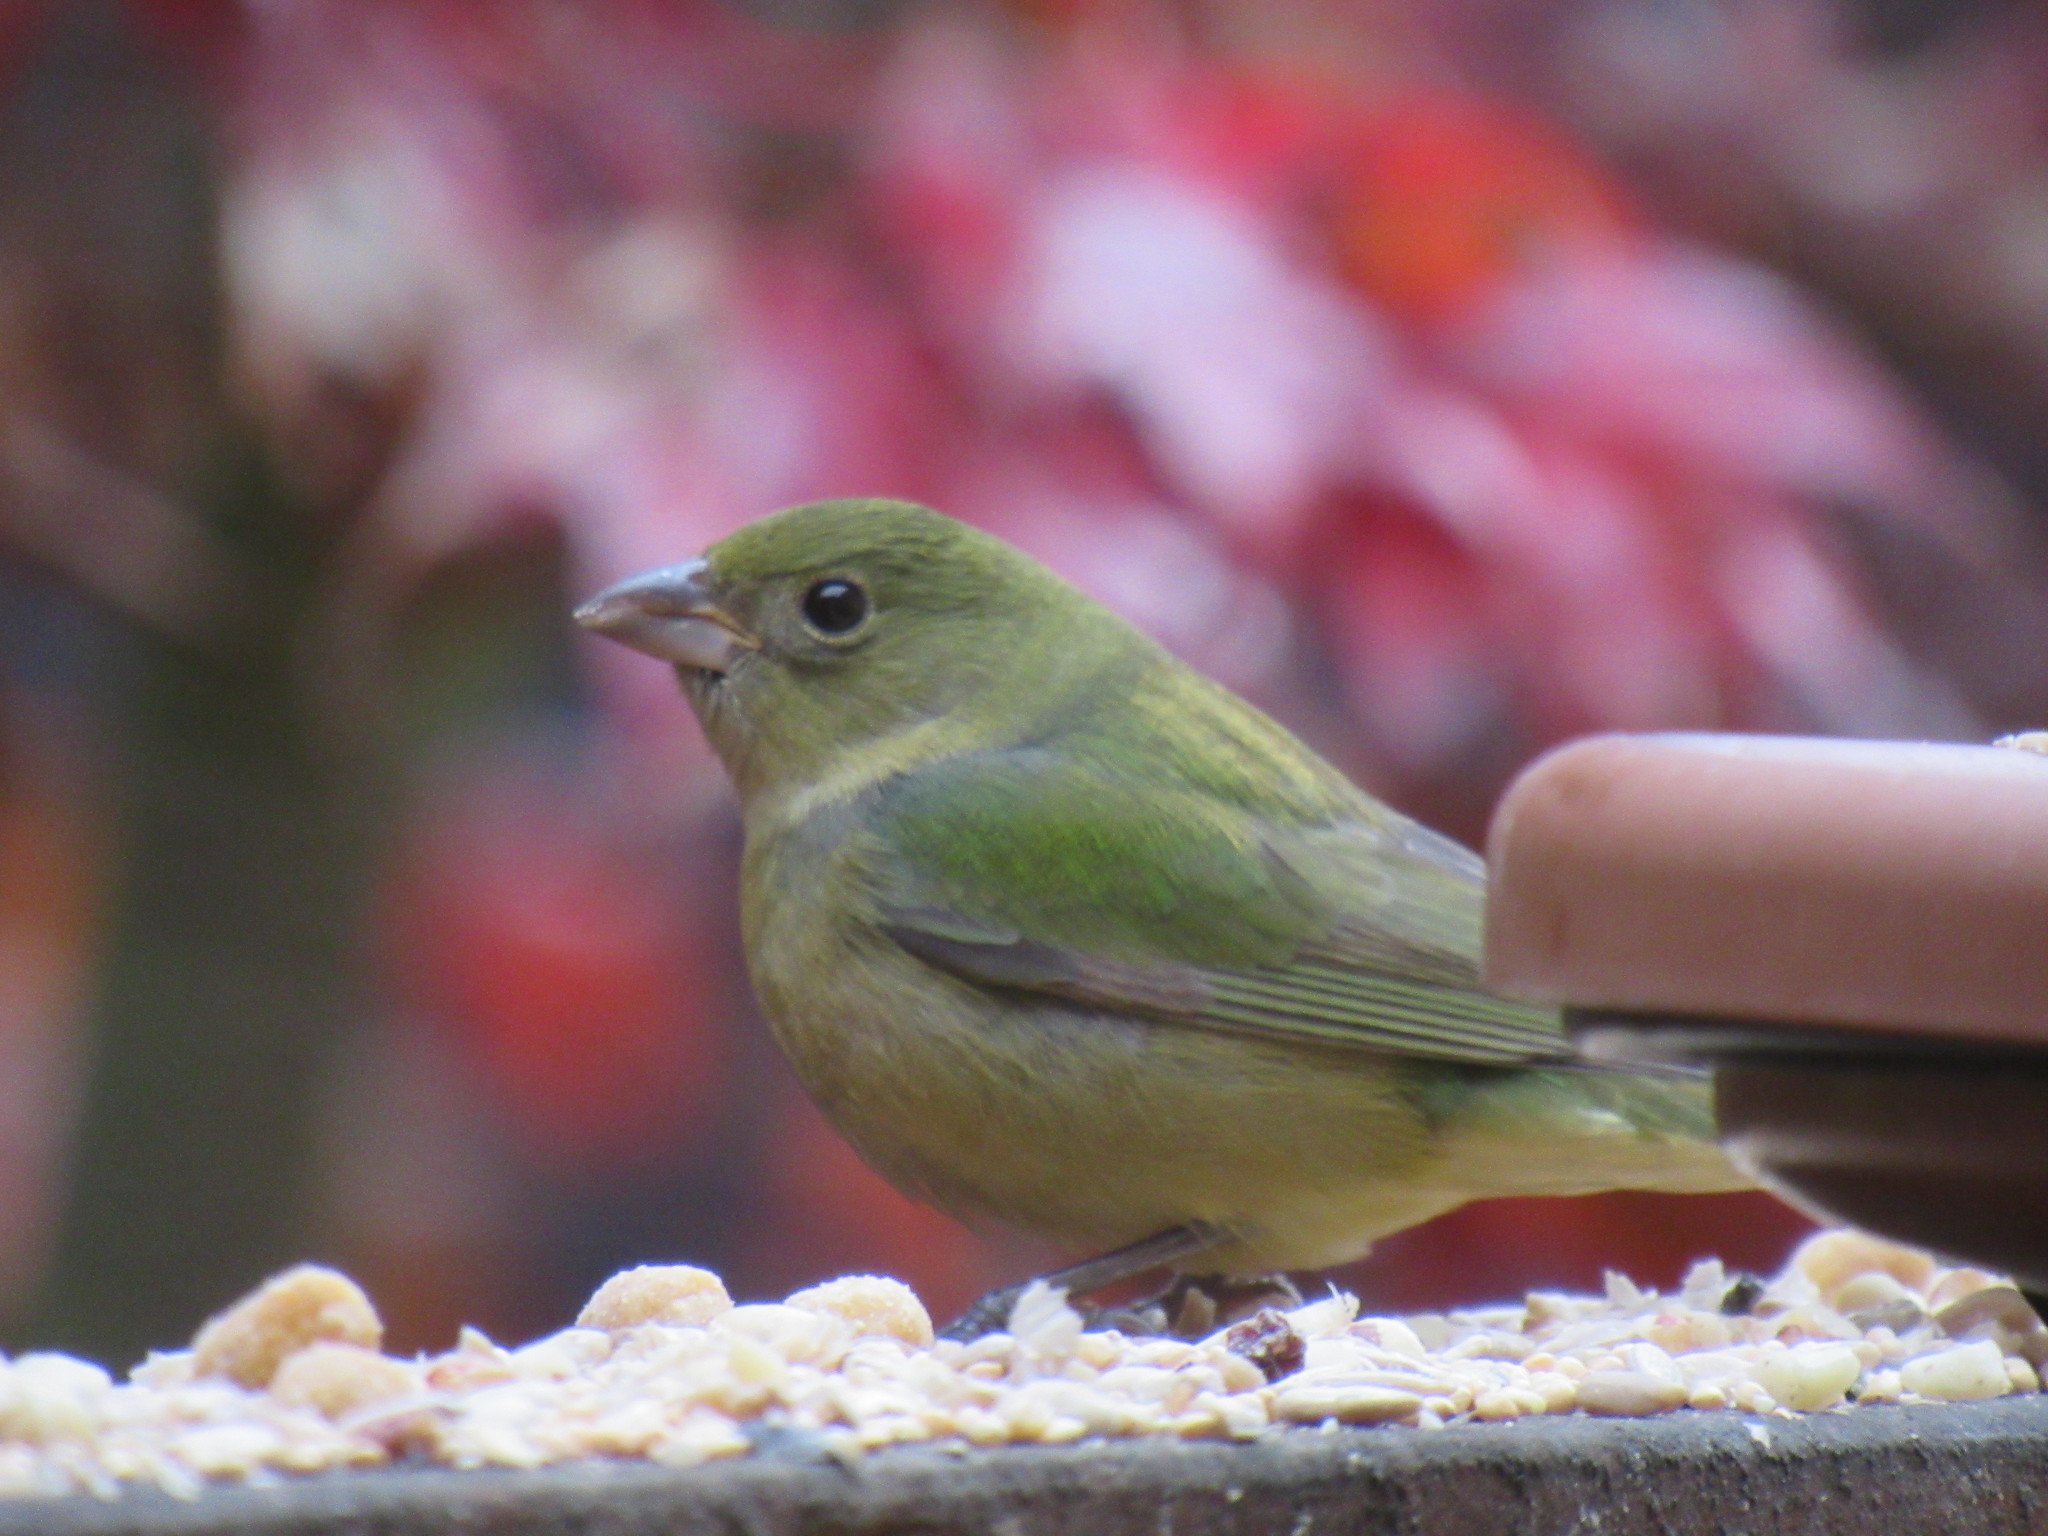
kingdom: Animalia
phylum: Chordata
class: Aves
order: Passeriformes
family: Cardinalidae
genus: Passerina
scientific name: Passerina ciris
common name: Painted bunting
